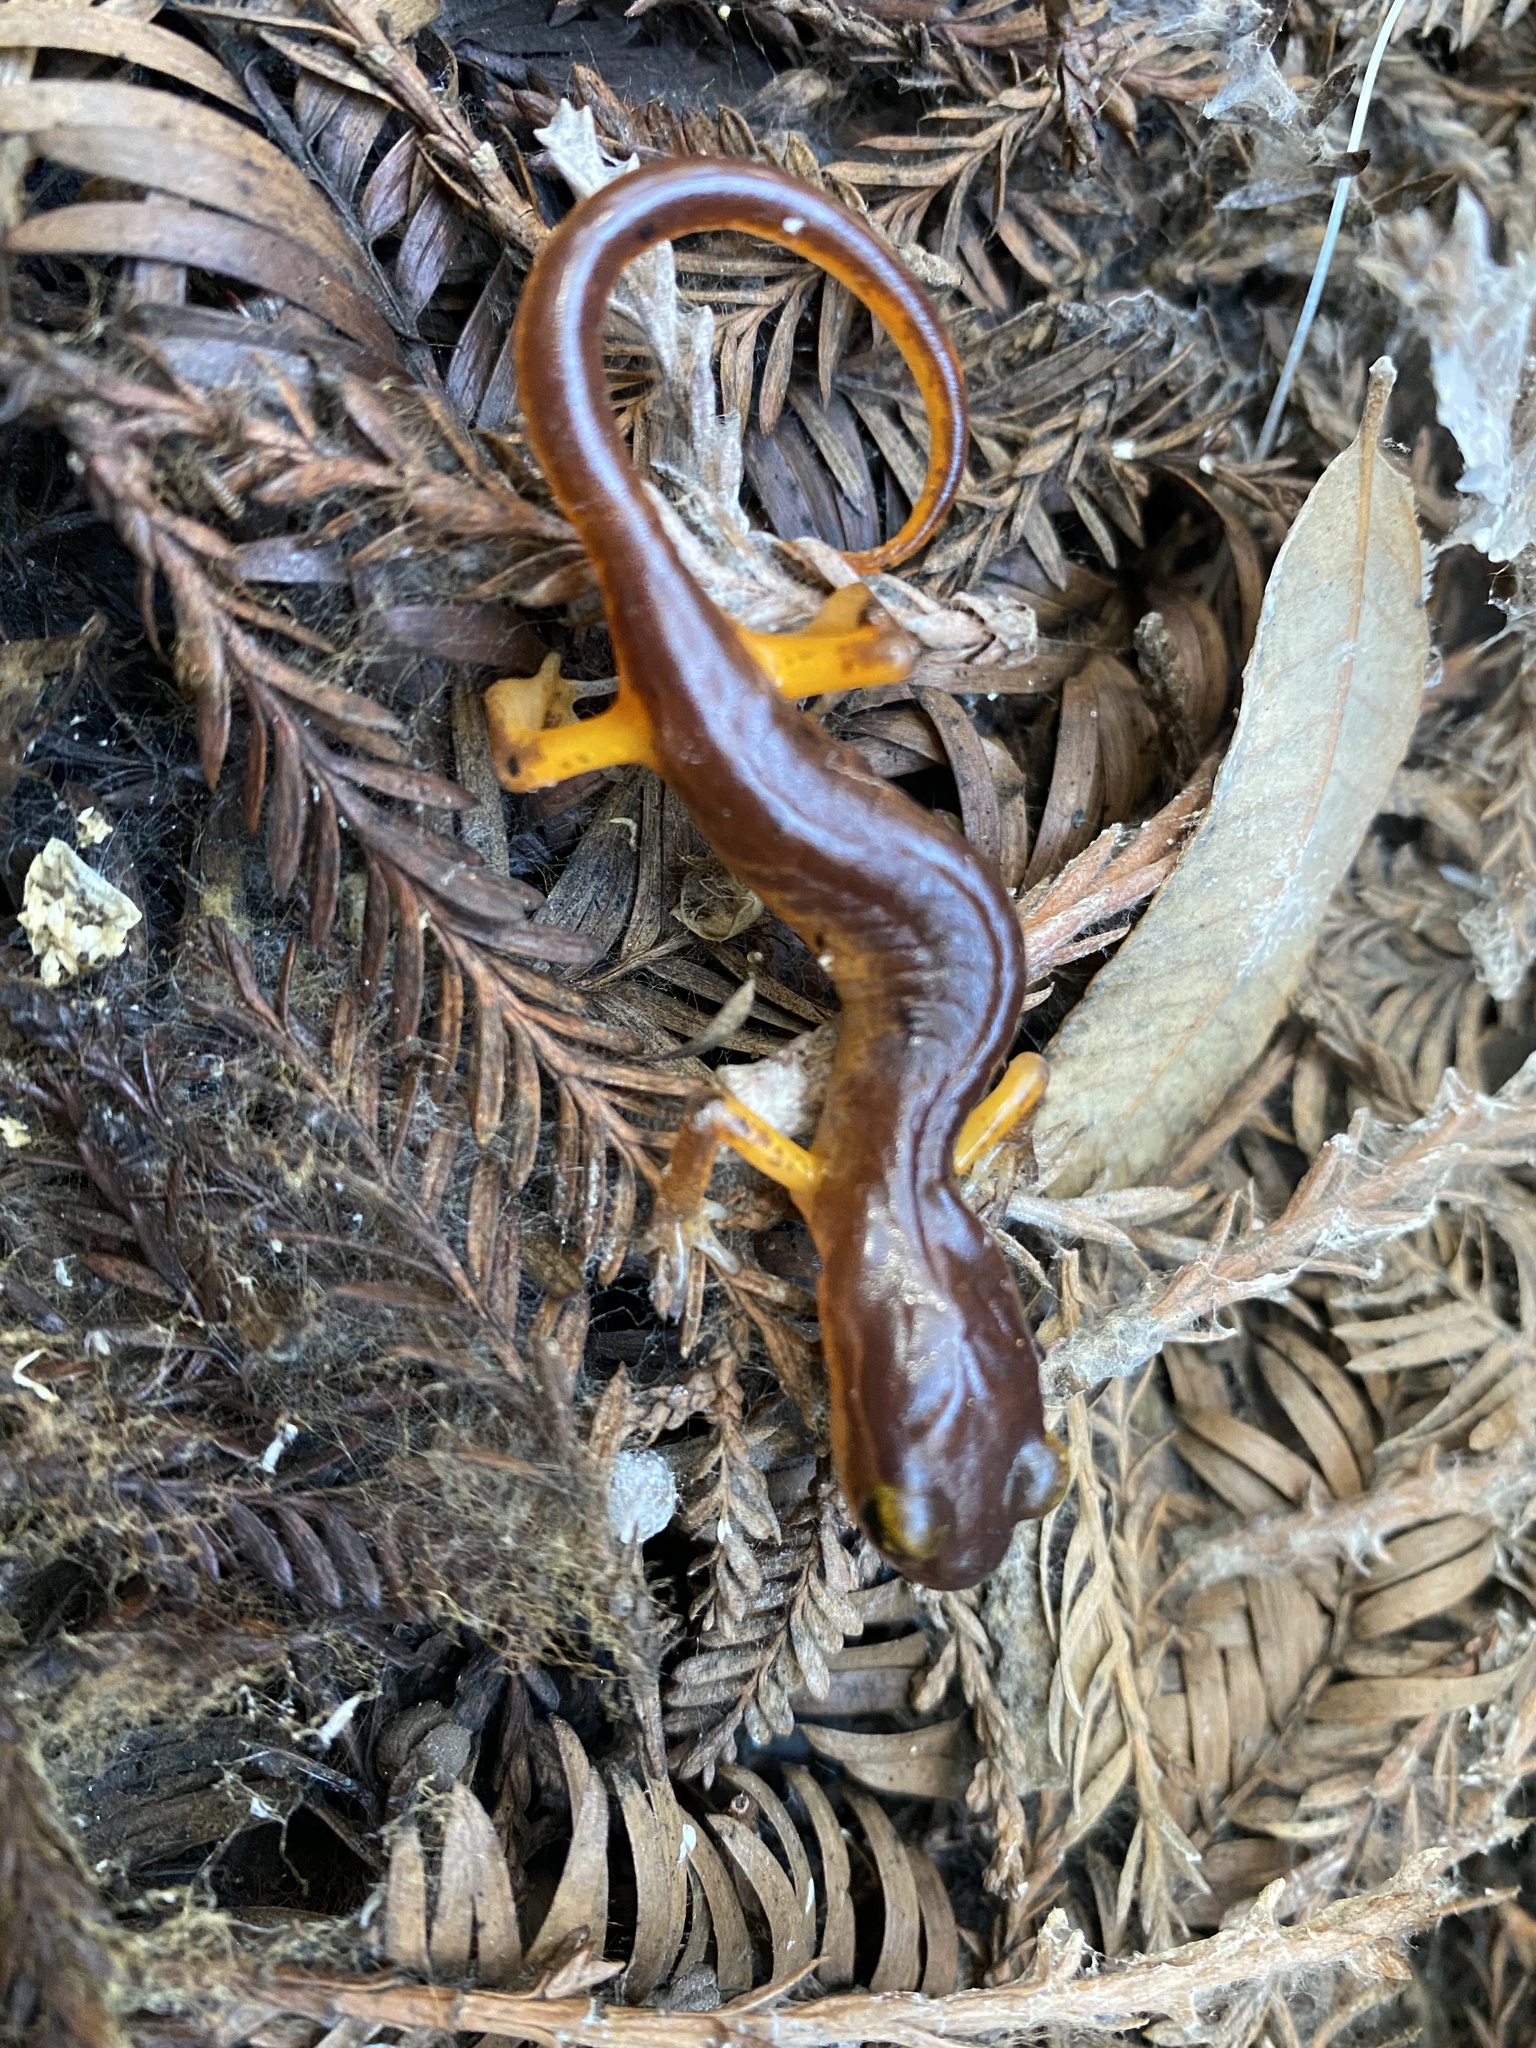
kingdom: Animalia
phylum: Chordata
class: Amphibia
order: Caudata
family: Plethodontidae
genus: Ensatina
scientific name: Ensatina eschscholtzii
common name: Ensatina
